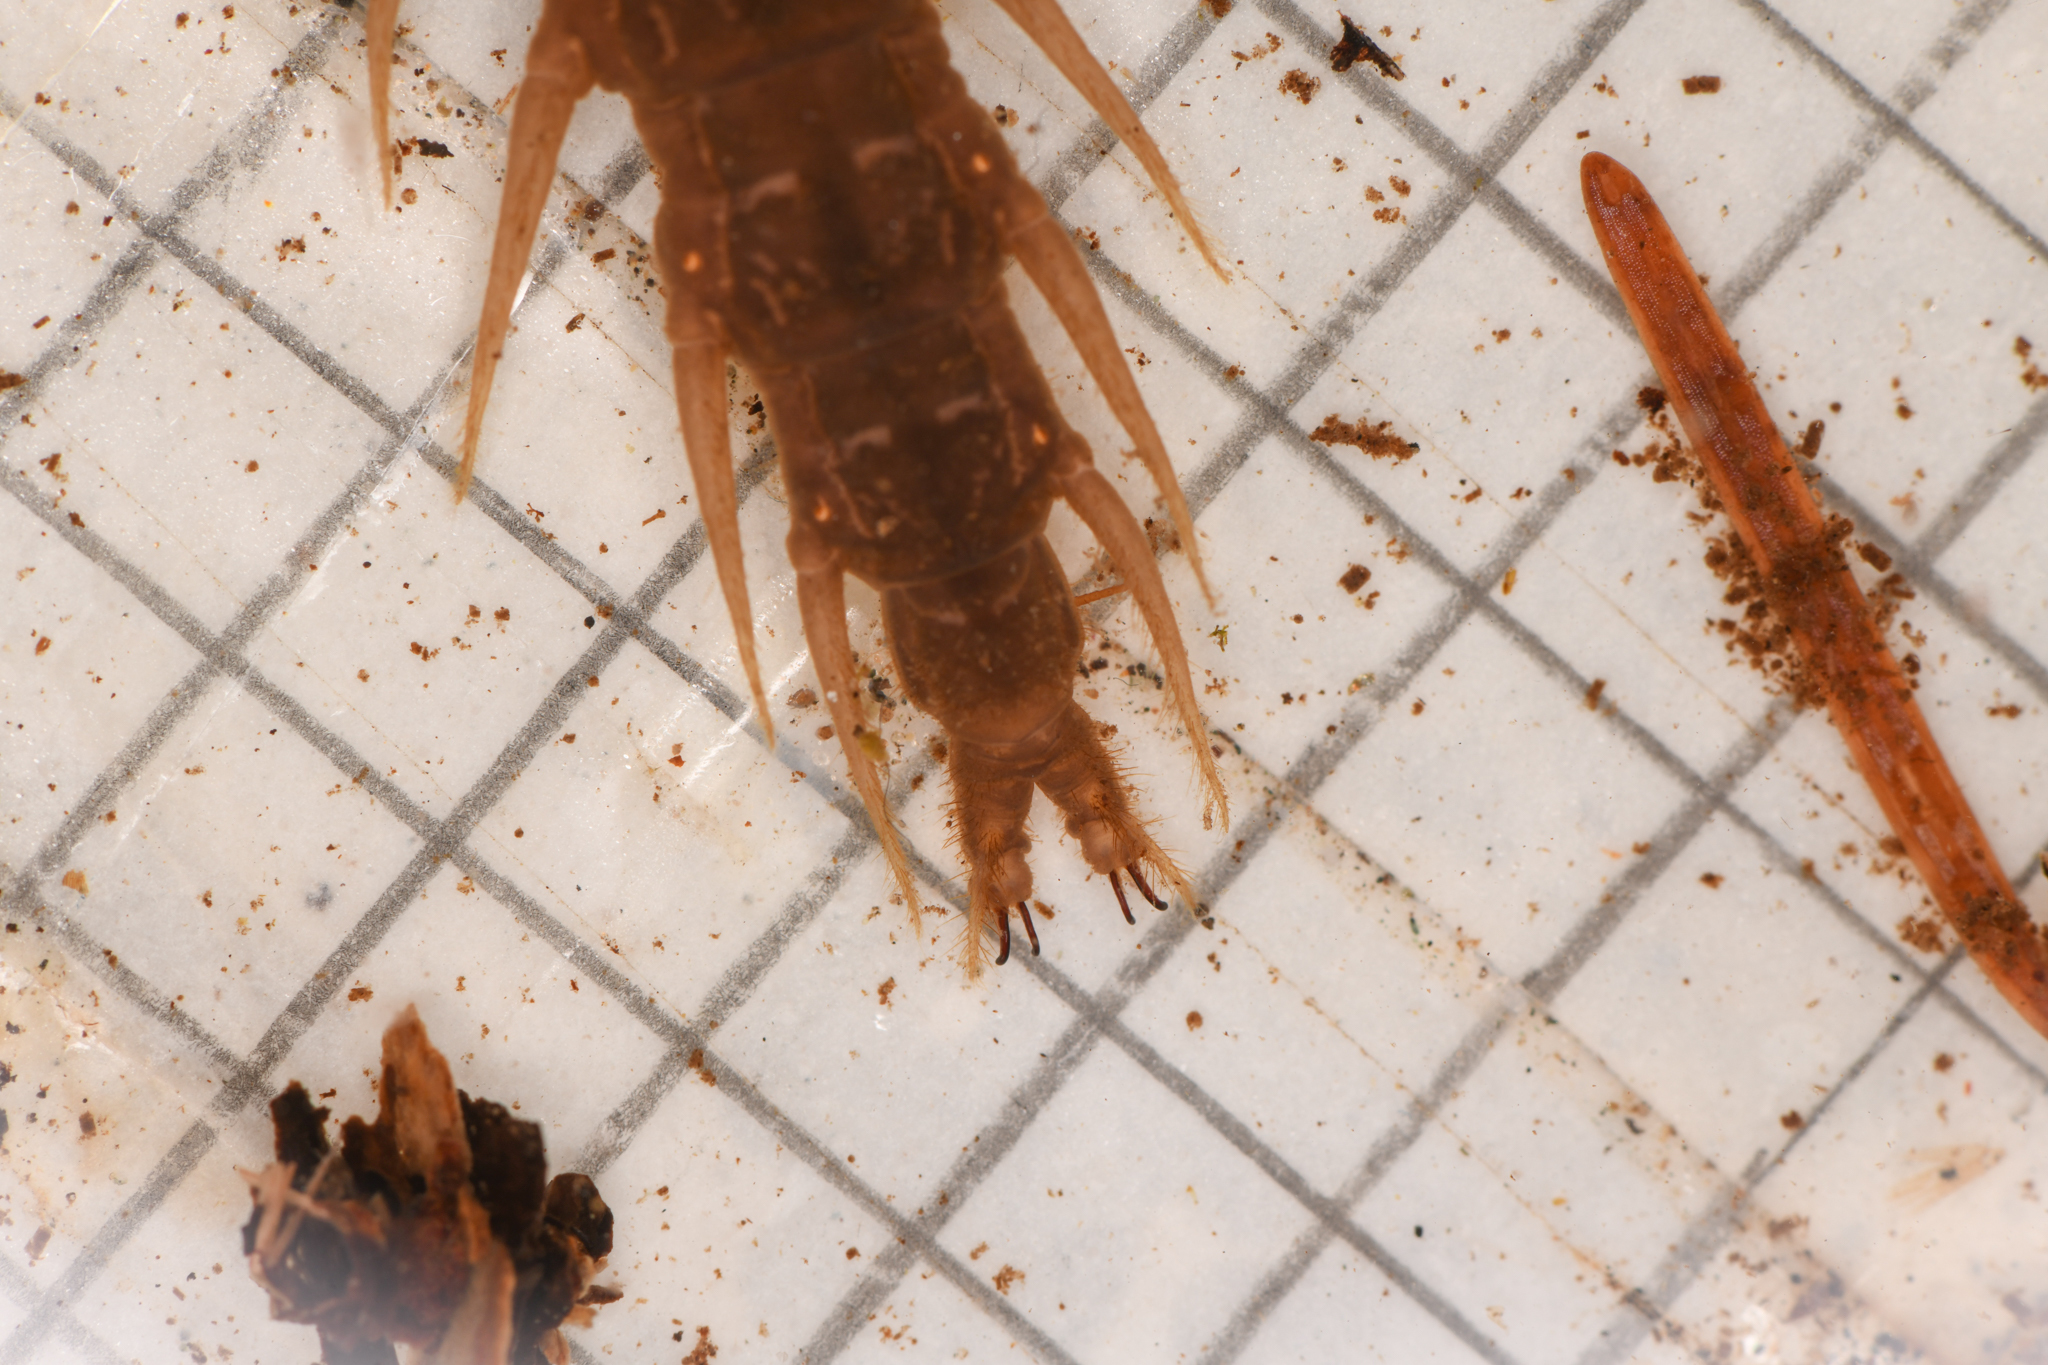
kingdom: Animalia
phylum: Arthropoda
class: Insecta
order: Megaloptera
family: Corydalidae
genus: Orohermes
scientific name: Orohermes crepusculus
